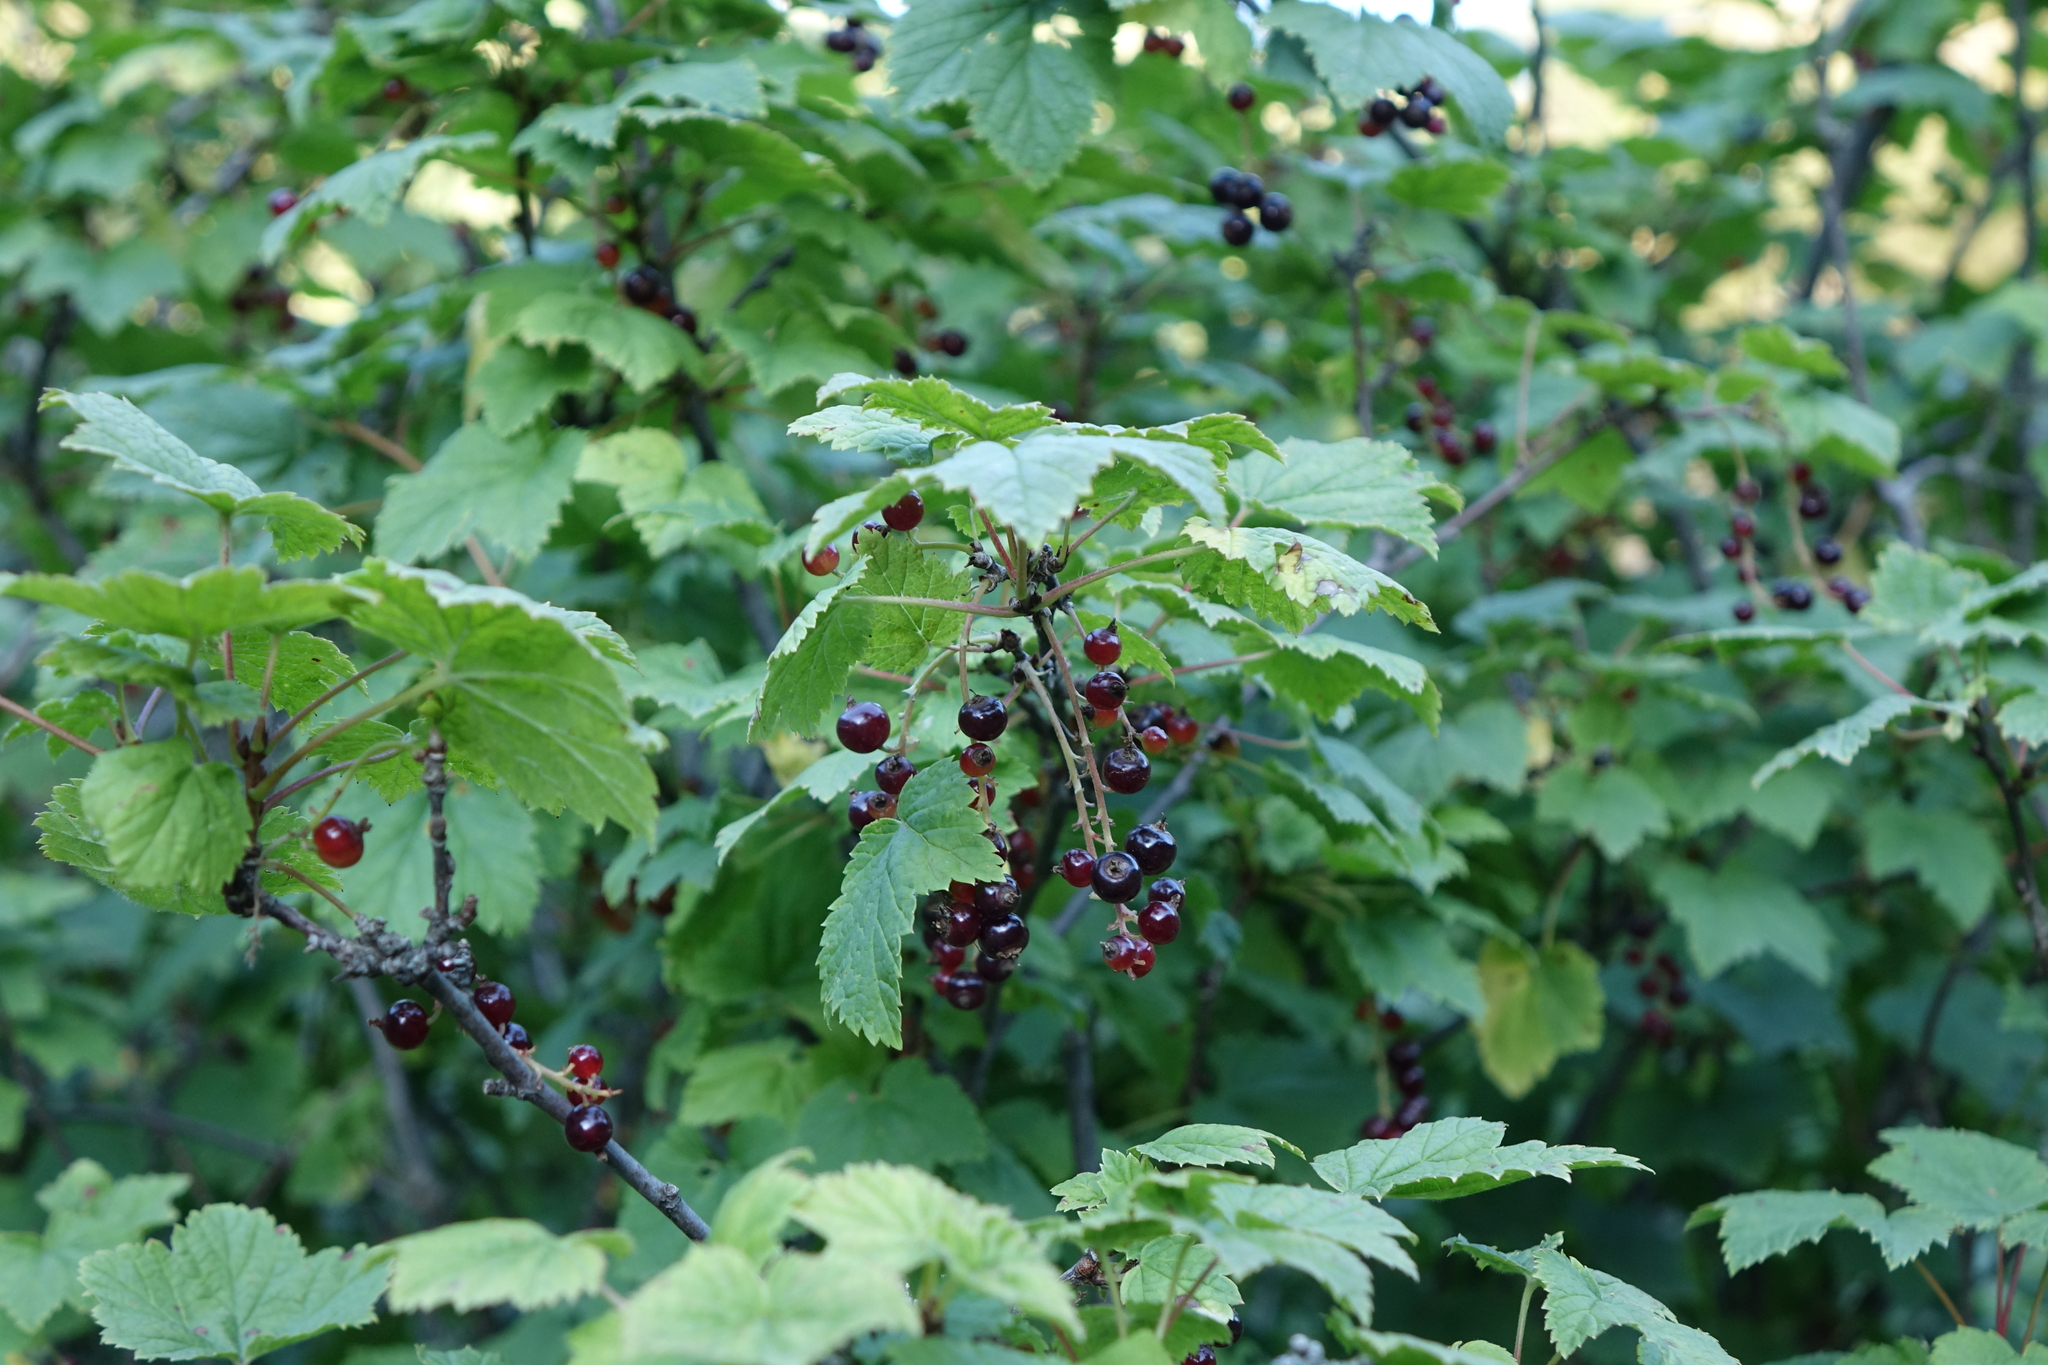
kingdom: Plantae
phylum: Tracheophyta
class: Magnoliopsida
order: Saxifragales
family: Grossulariaceae
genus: Ribes
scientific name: Ribes biebersteinii
